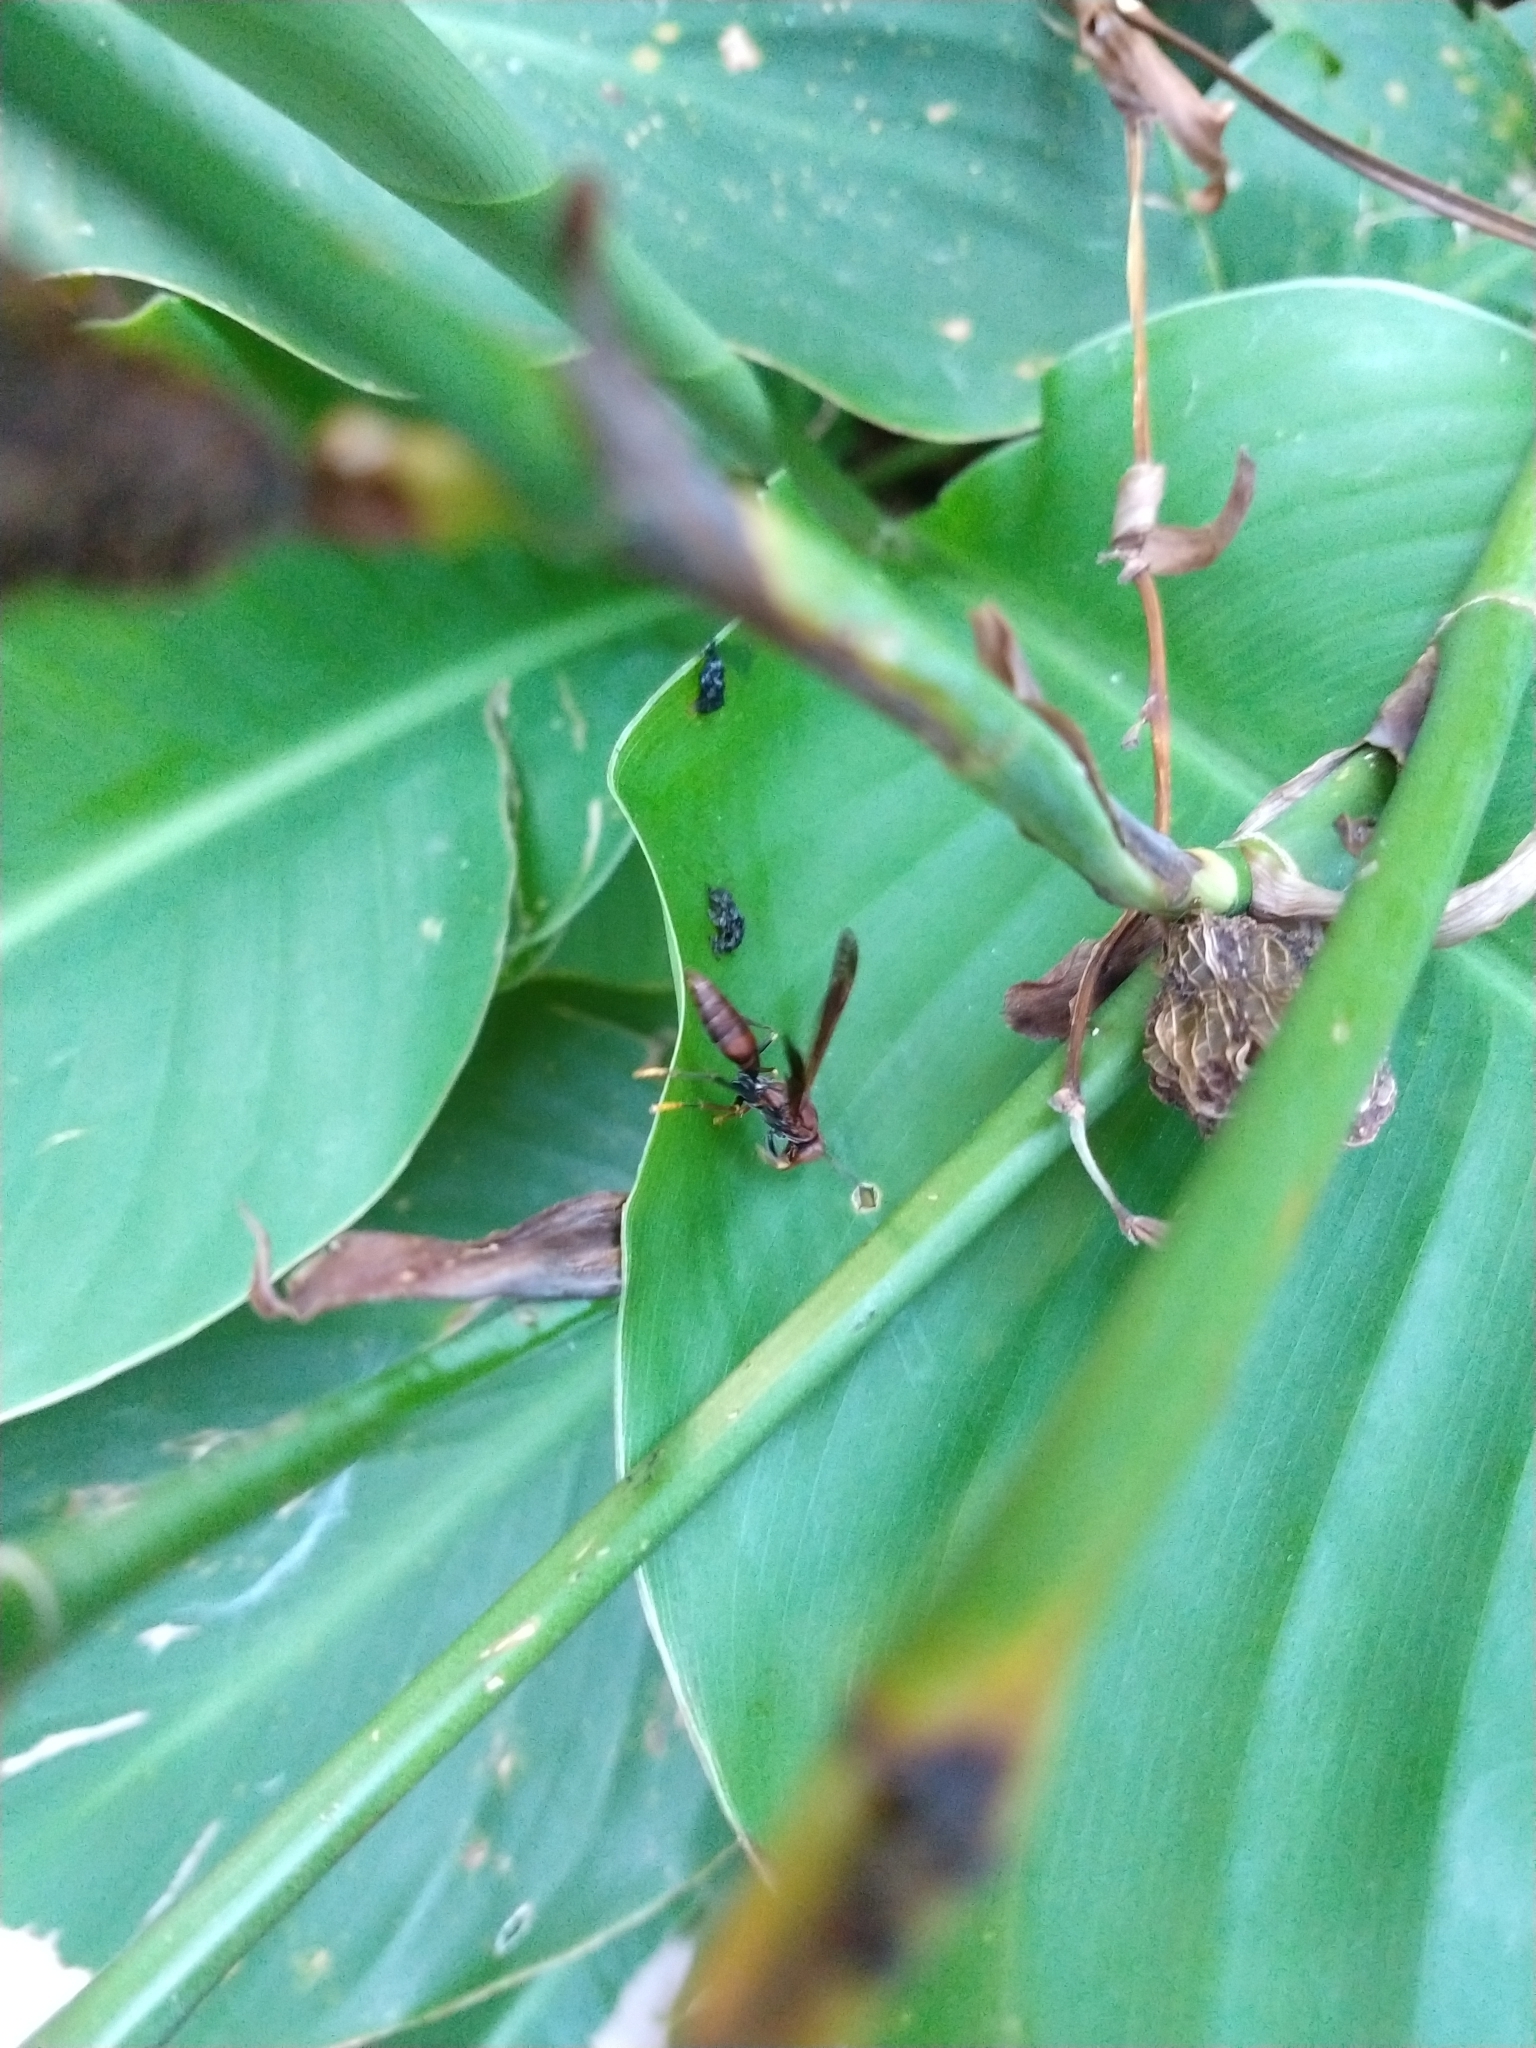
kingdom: Animalia
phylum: Arthropoda
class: Insecta
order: Hymenoptera
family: Pompilidae
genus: Aphanilopterus
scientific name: Aphanilopterus
